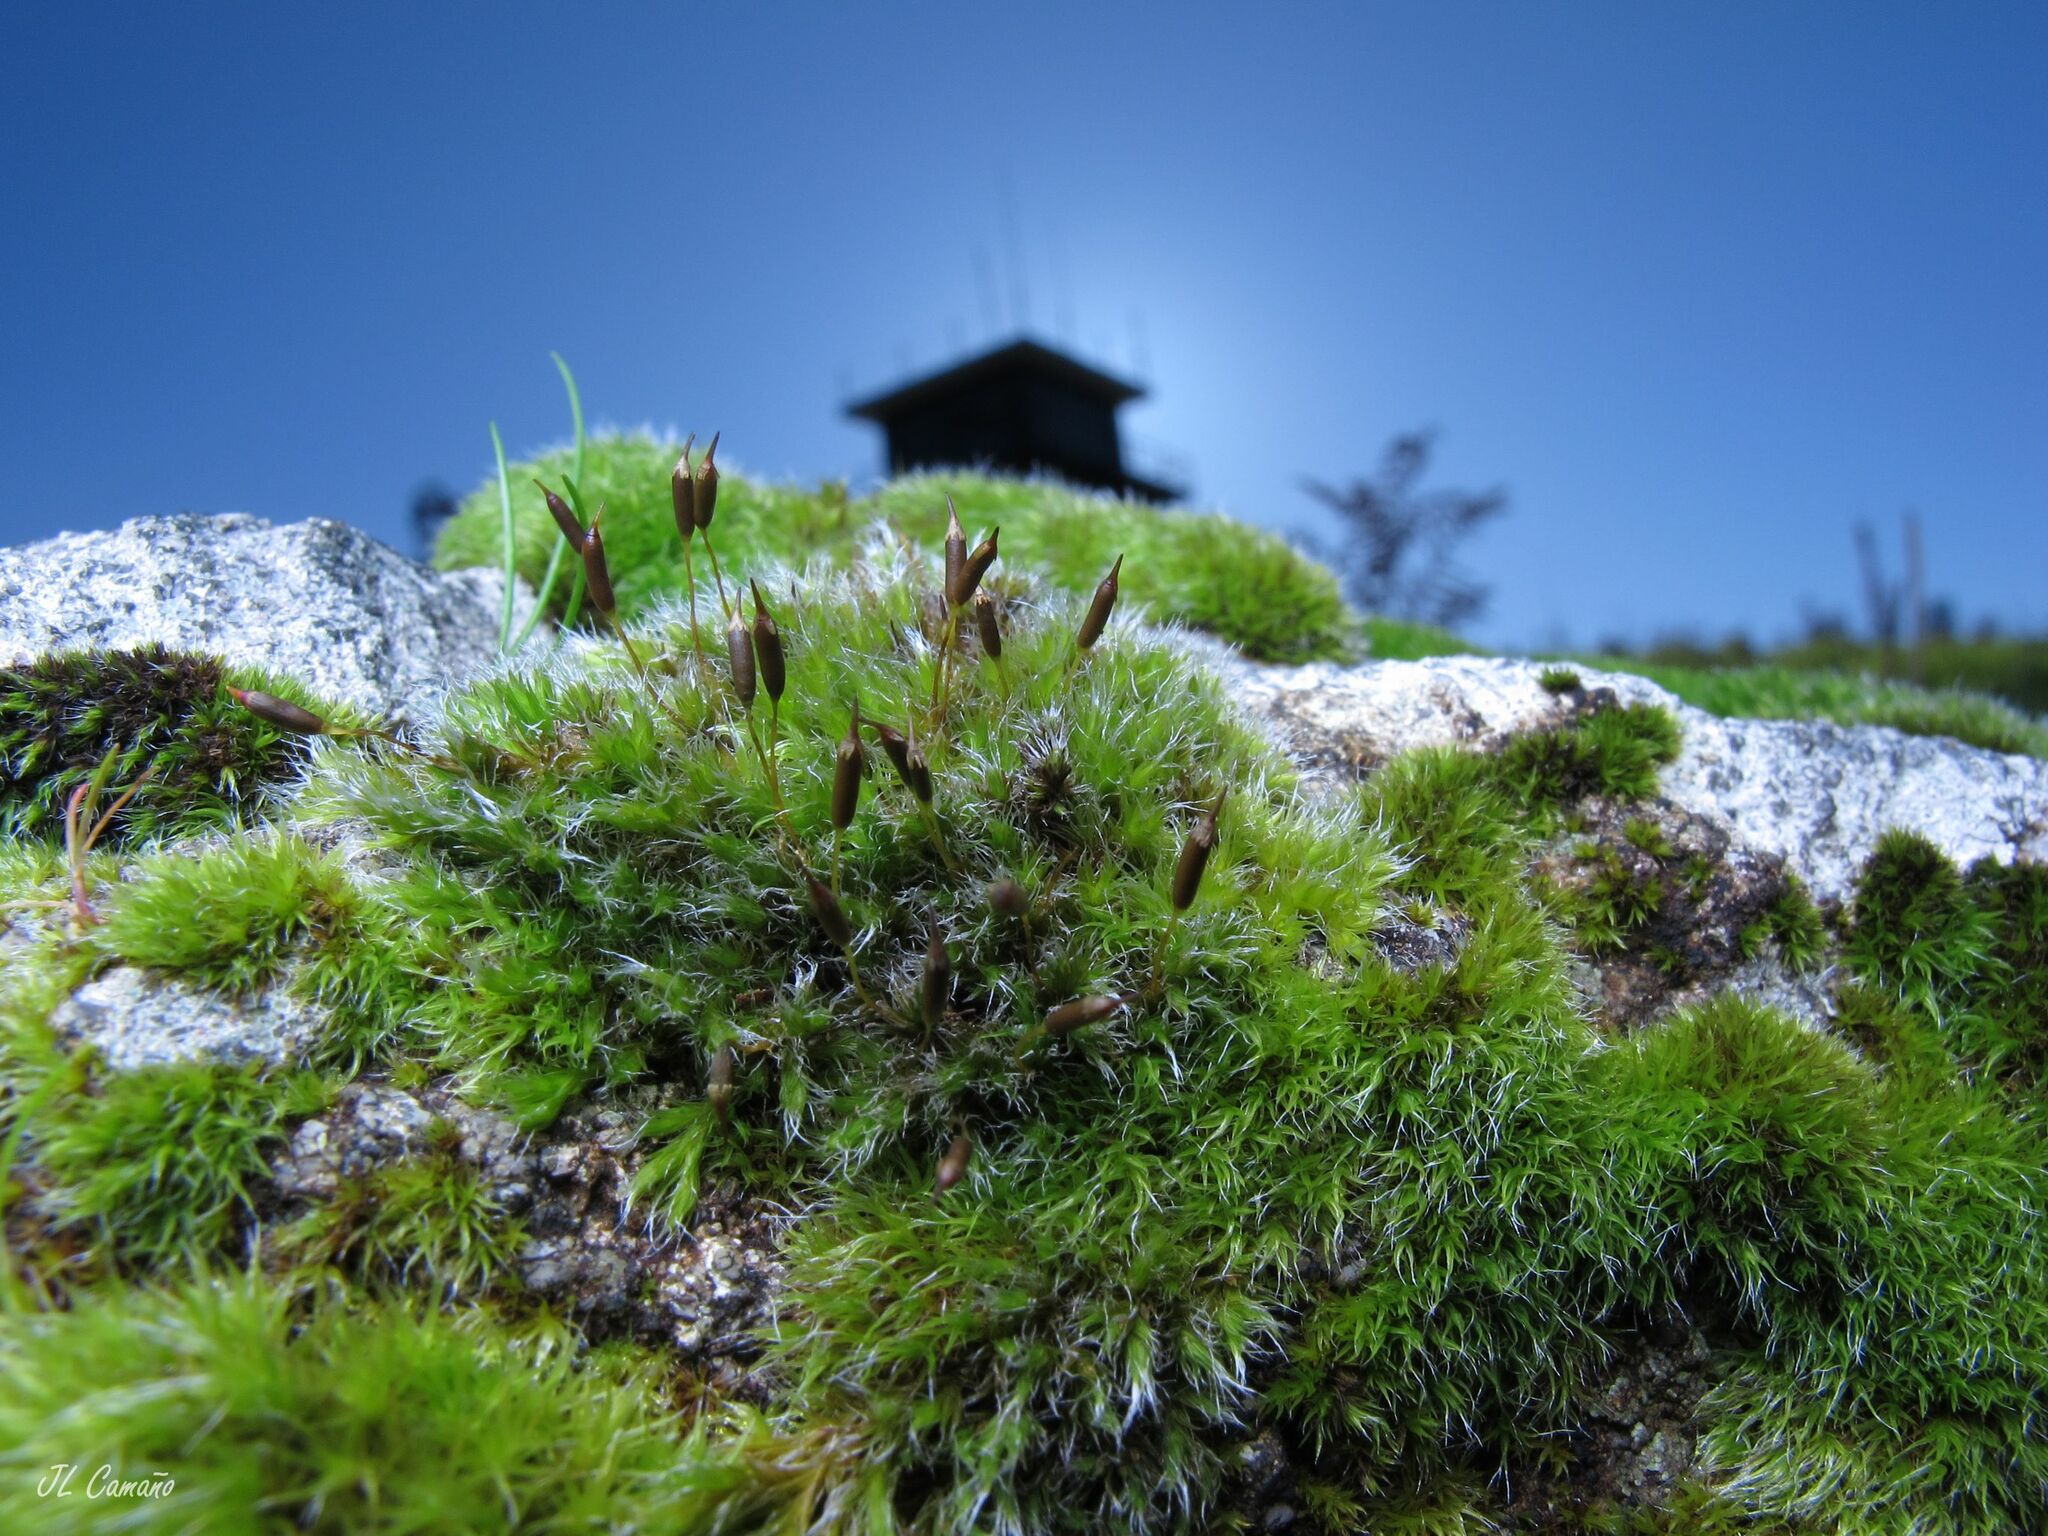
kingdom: Plantae
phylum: Bryophyta
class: Bryopsida
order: Grimmiales
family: Grimmiaceae
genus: Bucklandiella
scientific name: Bucklandiella heterosticha
